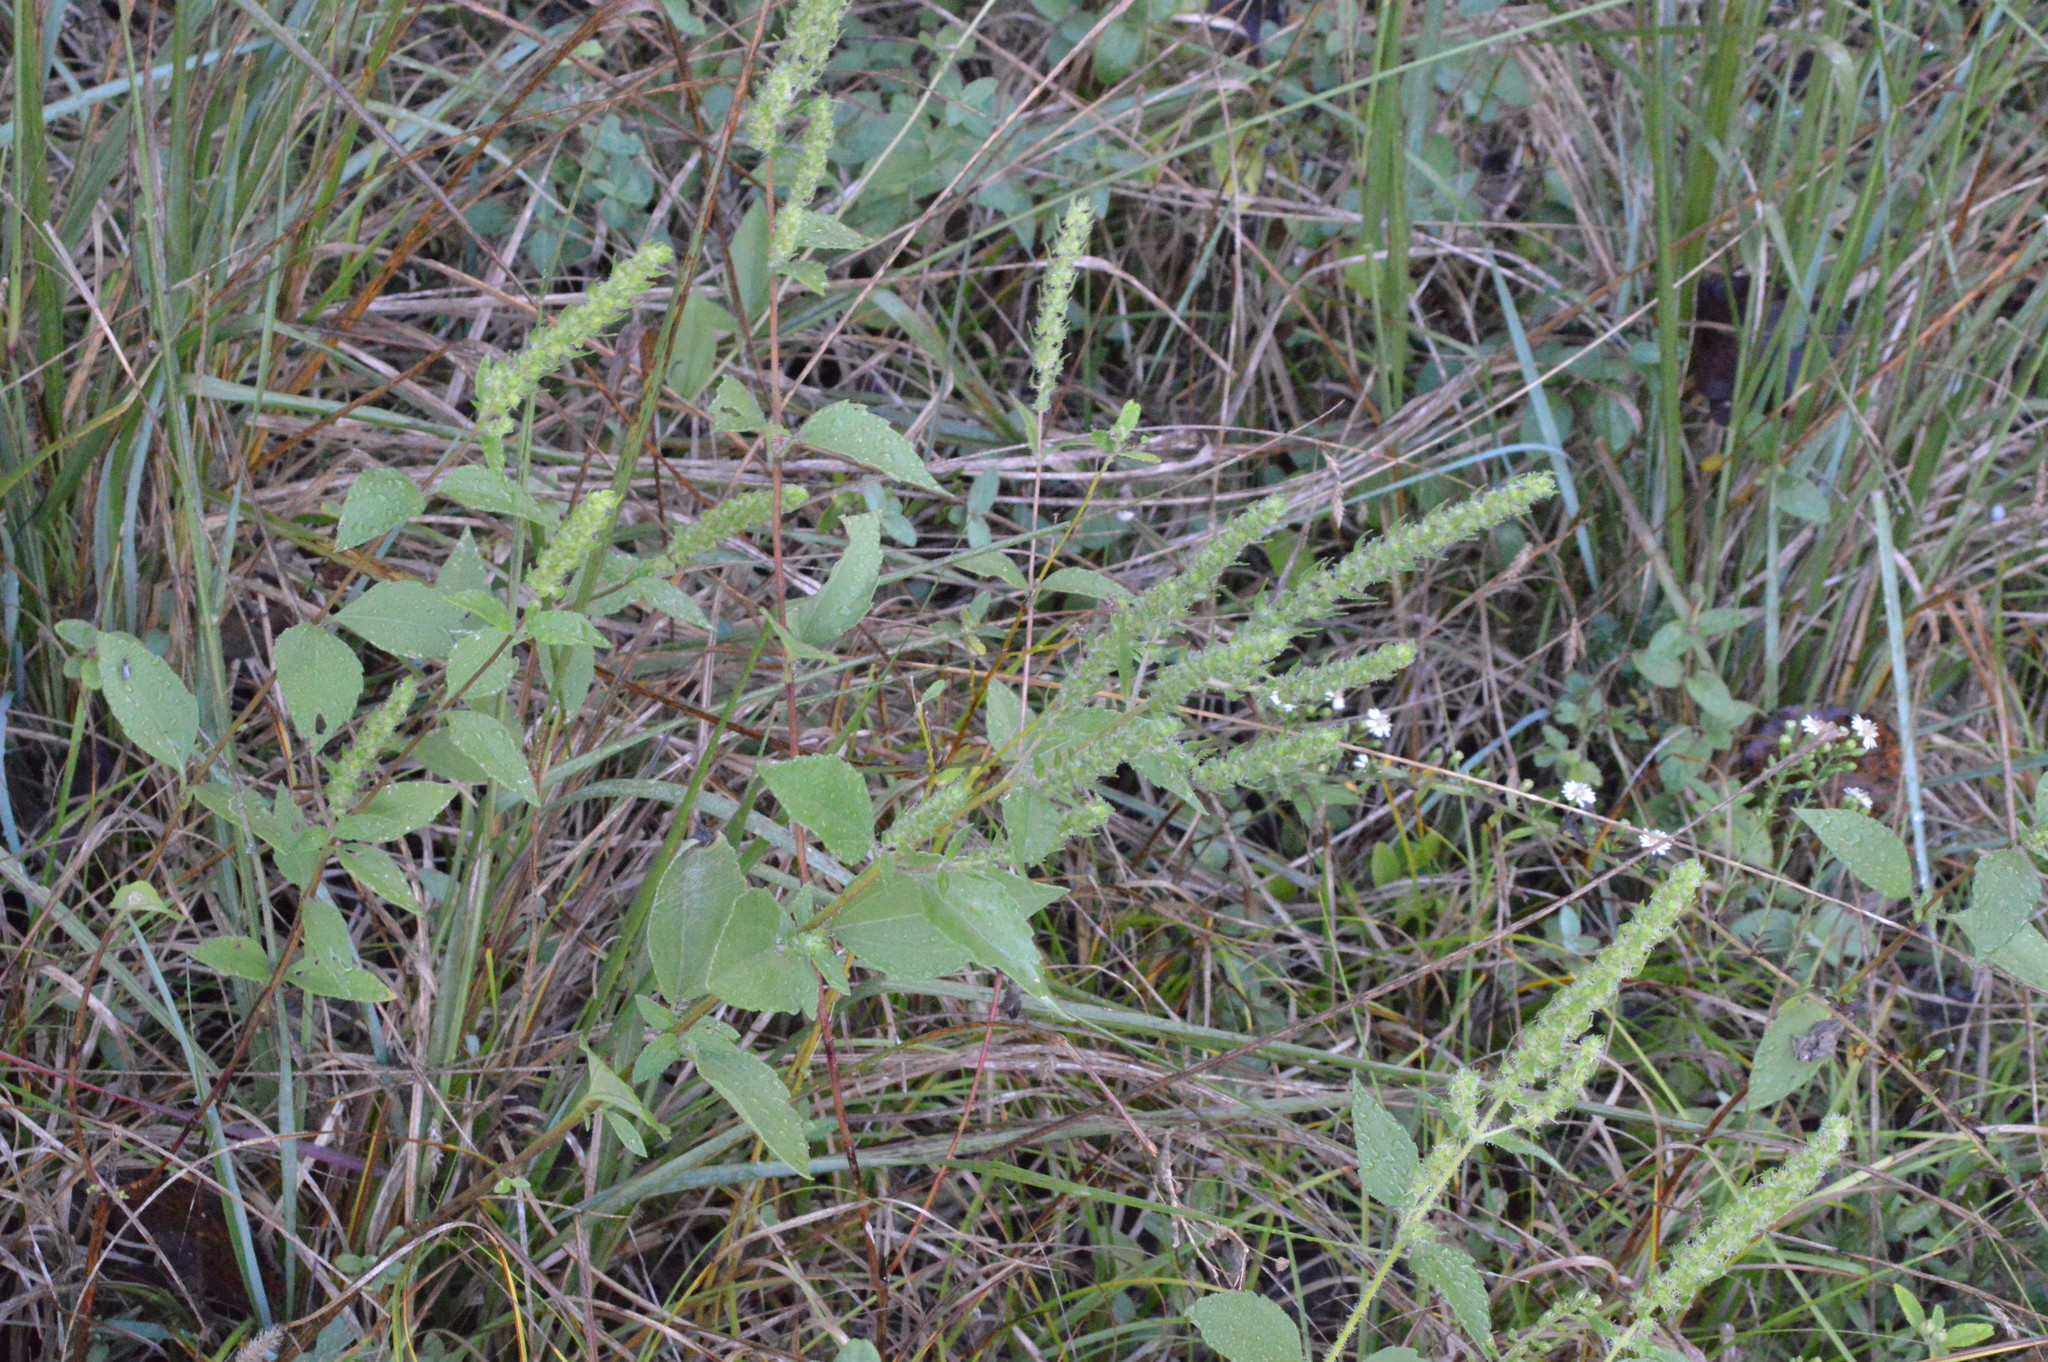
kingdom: Plantae
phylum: Tracheophyta
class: Magnoliopsida
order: Asterales
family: Asteraceae
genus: Iva
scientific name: Iva annua
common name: Marsh-elder
